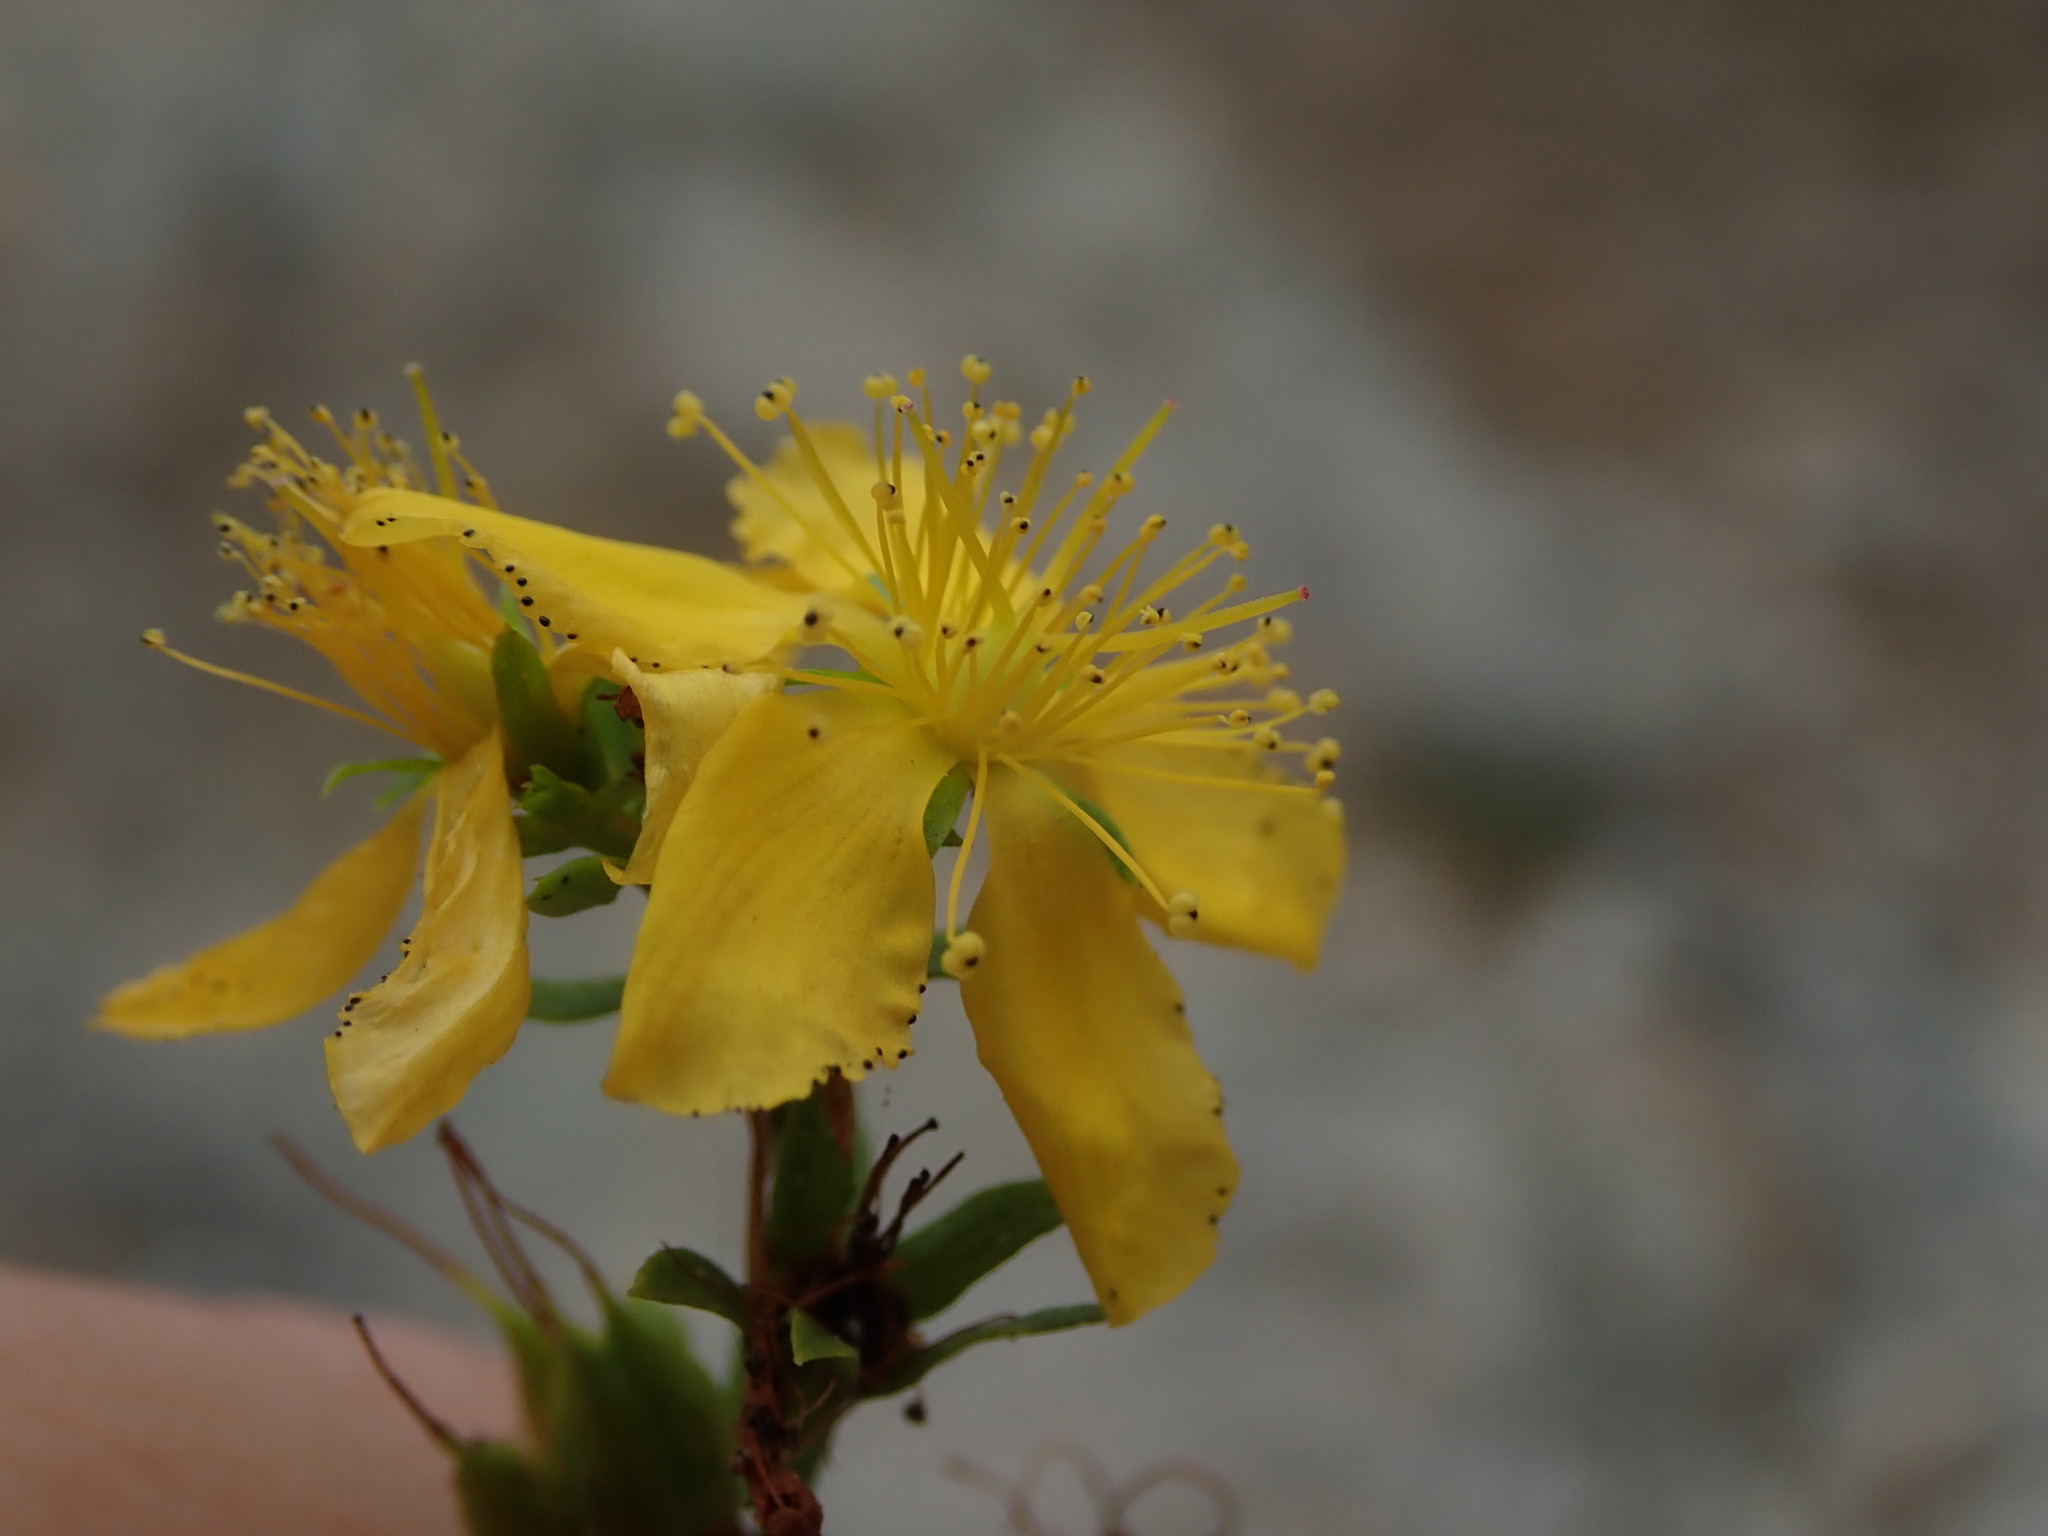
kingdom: Plantae
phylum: Tracheophyta
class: Magnoliopsida
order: Malpighiales
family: Hypericaceae
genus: Hypericum
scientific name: Hypericum perforatum
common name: Common st. johnswort
